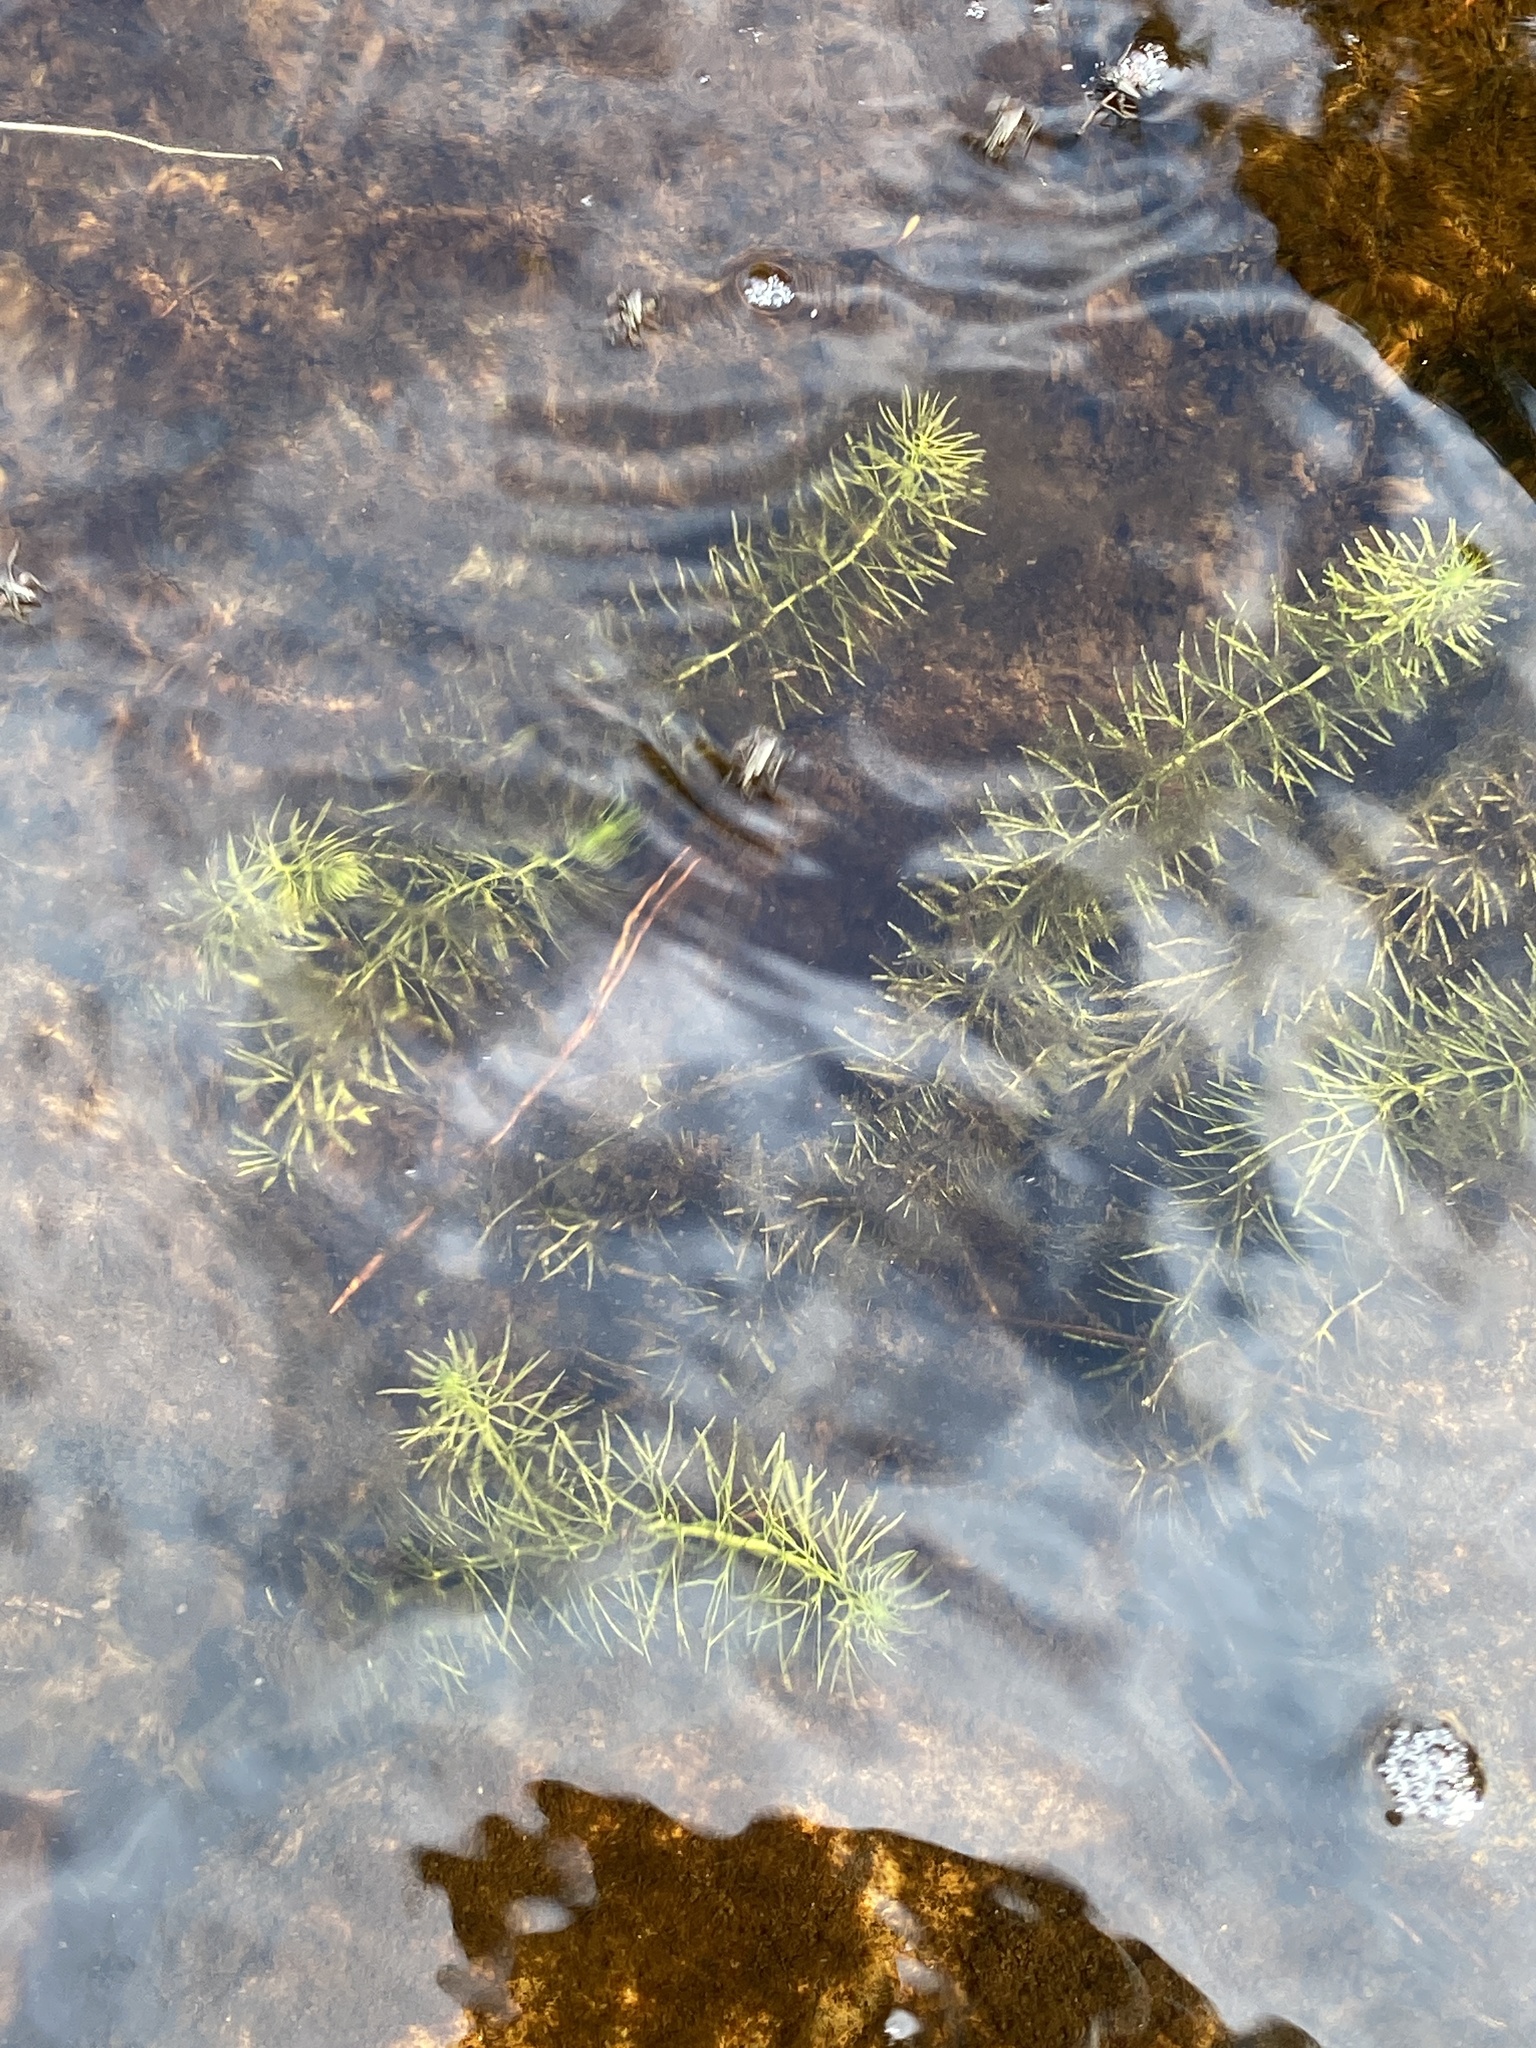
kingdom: Plantae
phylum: Tracheophyta
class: Magnoliopsida
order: Lamiales
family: Lentibulariaceae
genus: Utricularia
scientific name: Utricularia intermedia
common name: Intermediate bladderwort
